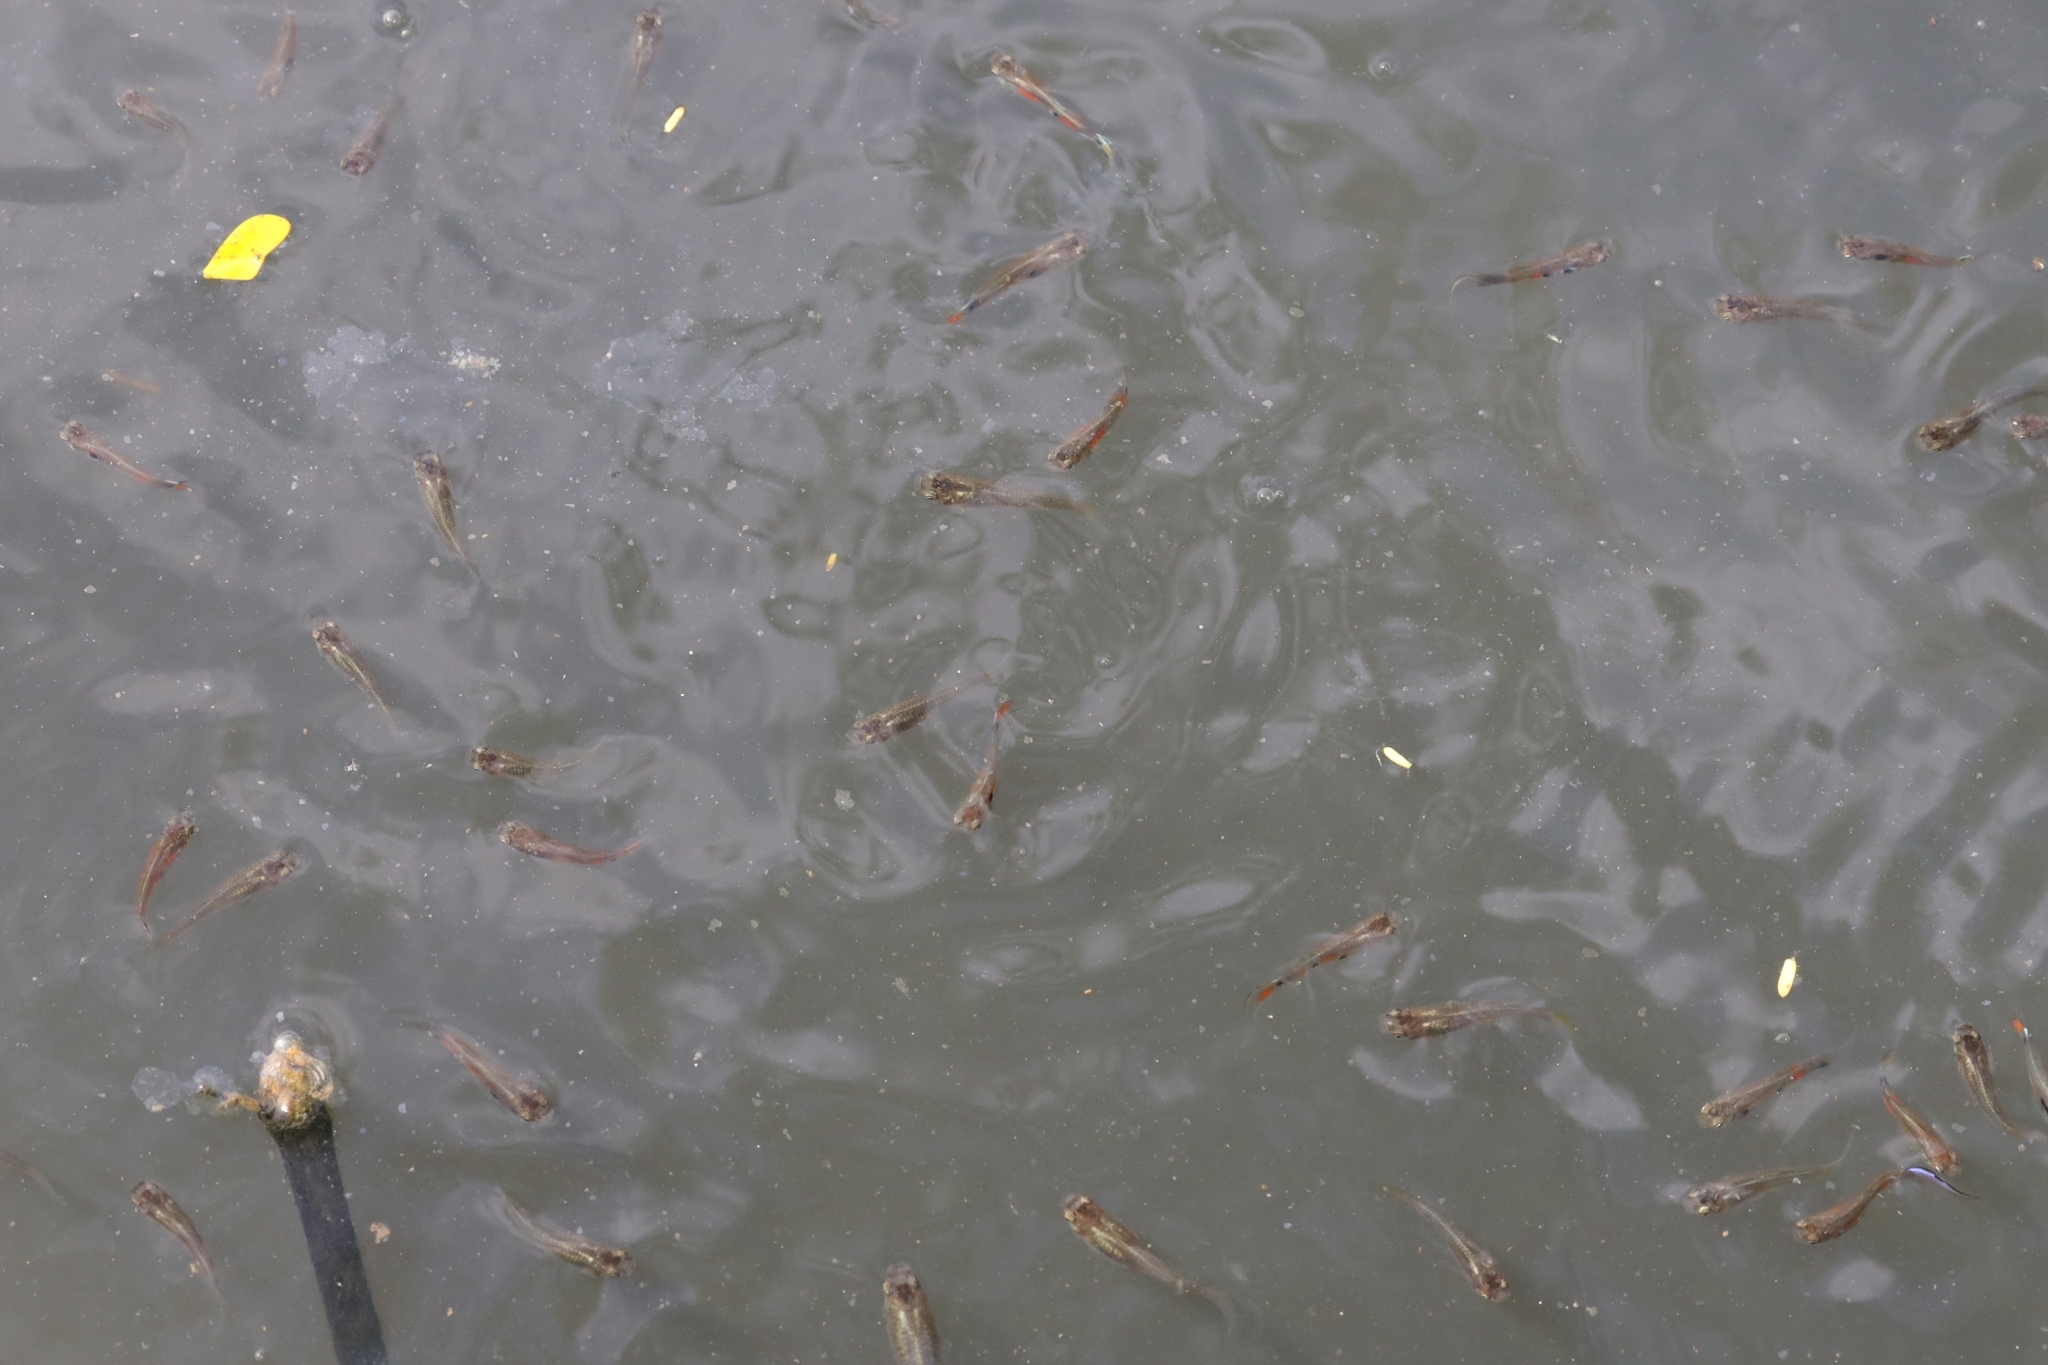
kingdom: Animalia
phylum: Chordata
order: Cyprinodontiformes
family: Poeciliidae
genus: Poecilia
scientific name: Poecilia reticulata
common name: Guppy
